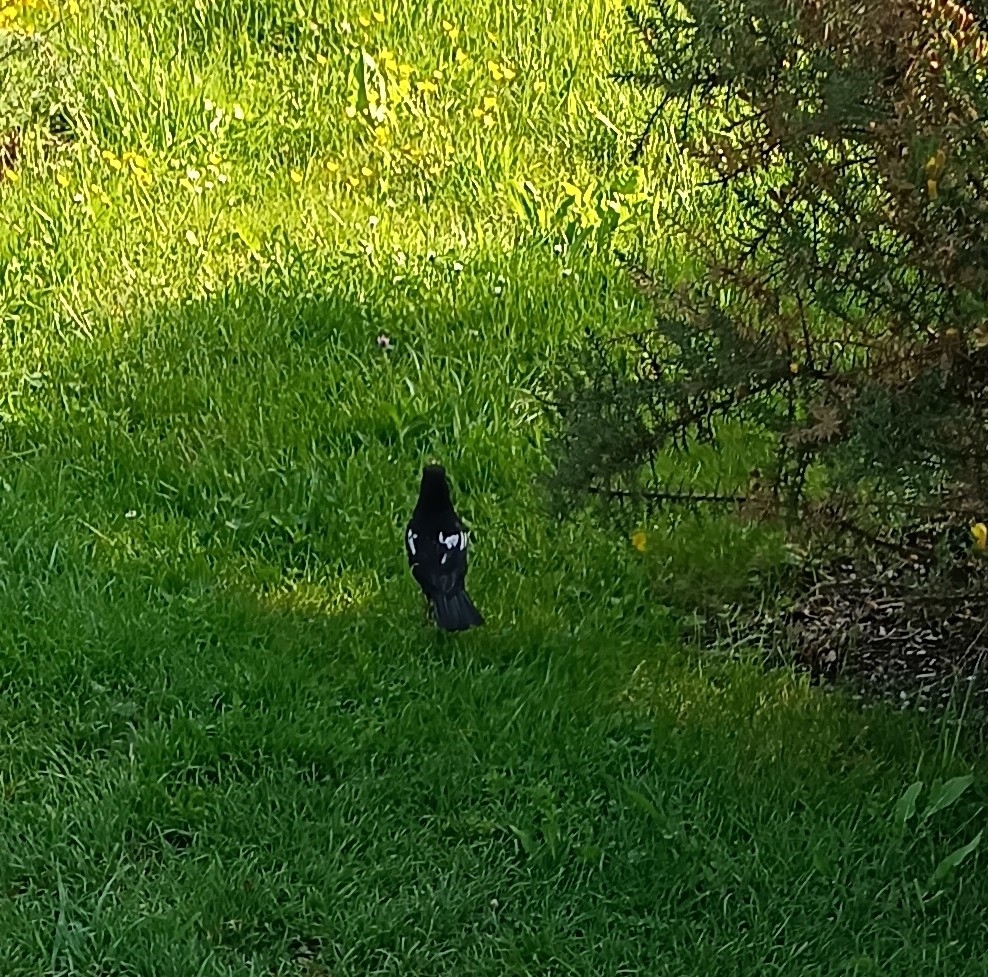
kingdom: Animalia
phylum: Chordata
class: Aves
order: Passeriformes
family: Turdidae
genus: Turdus
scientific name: Turdus merula
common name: Common blackbird
